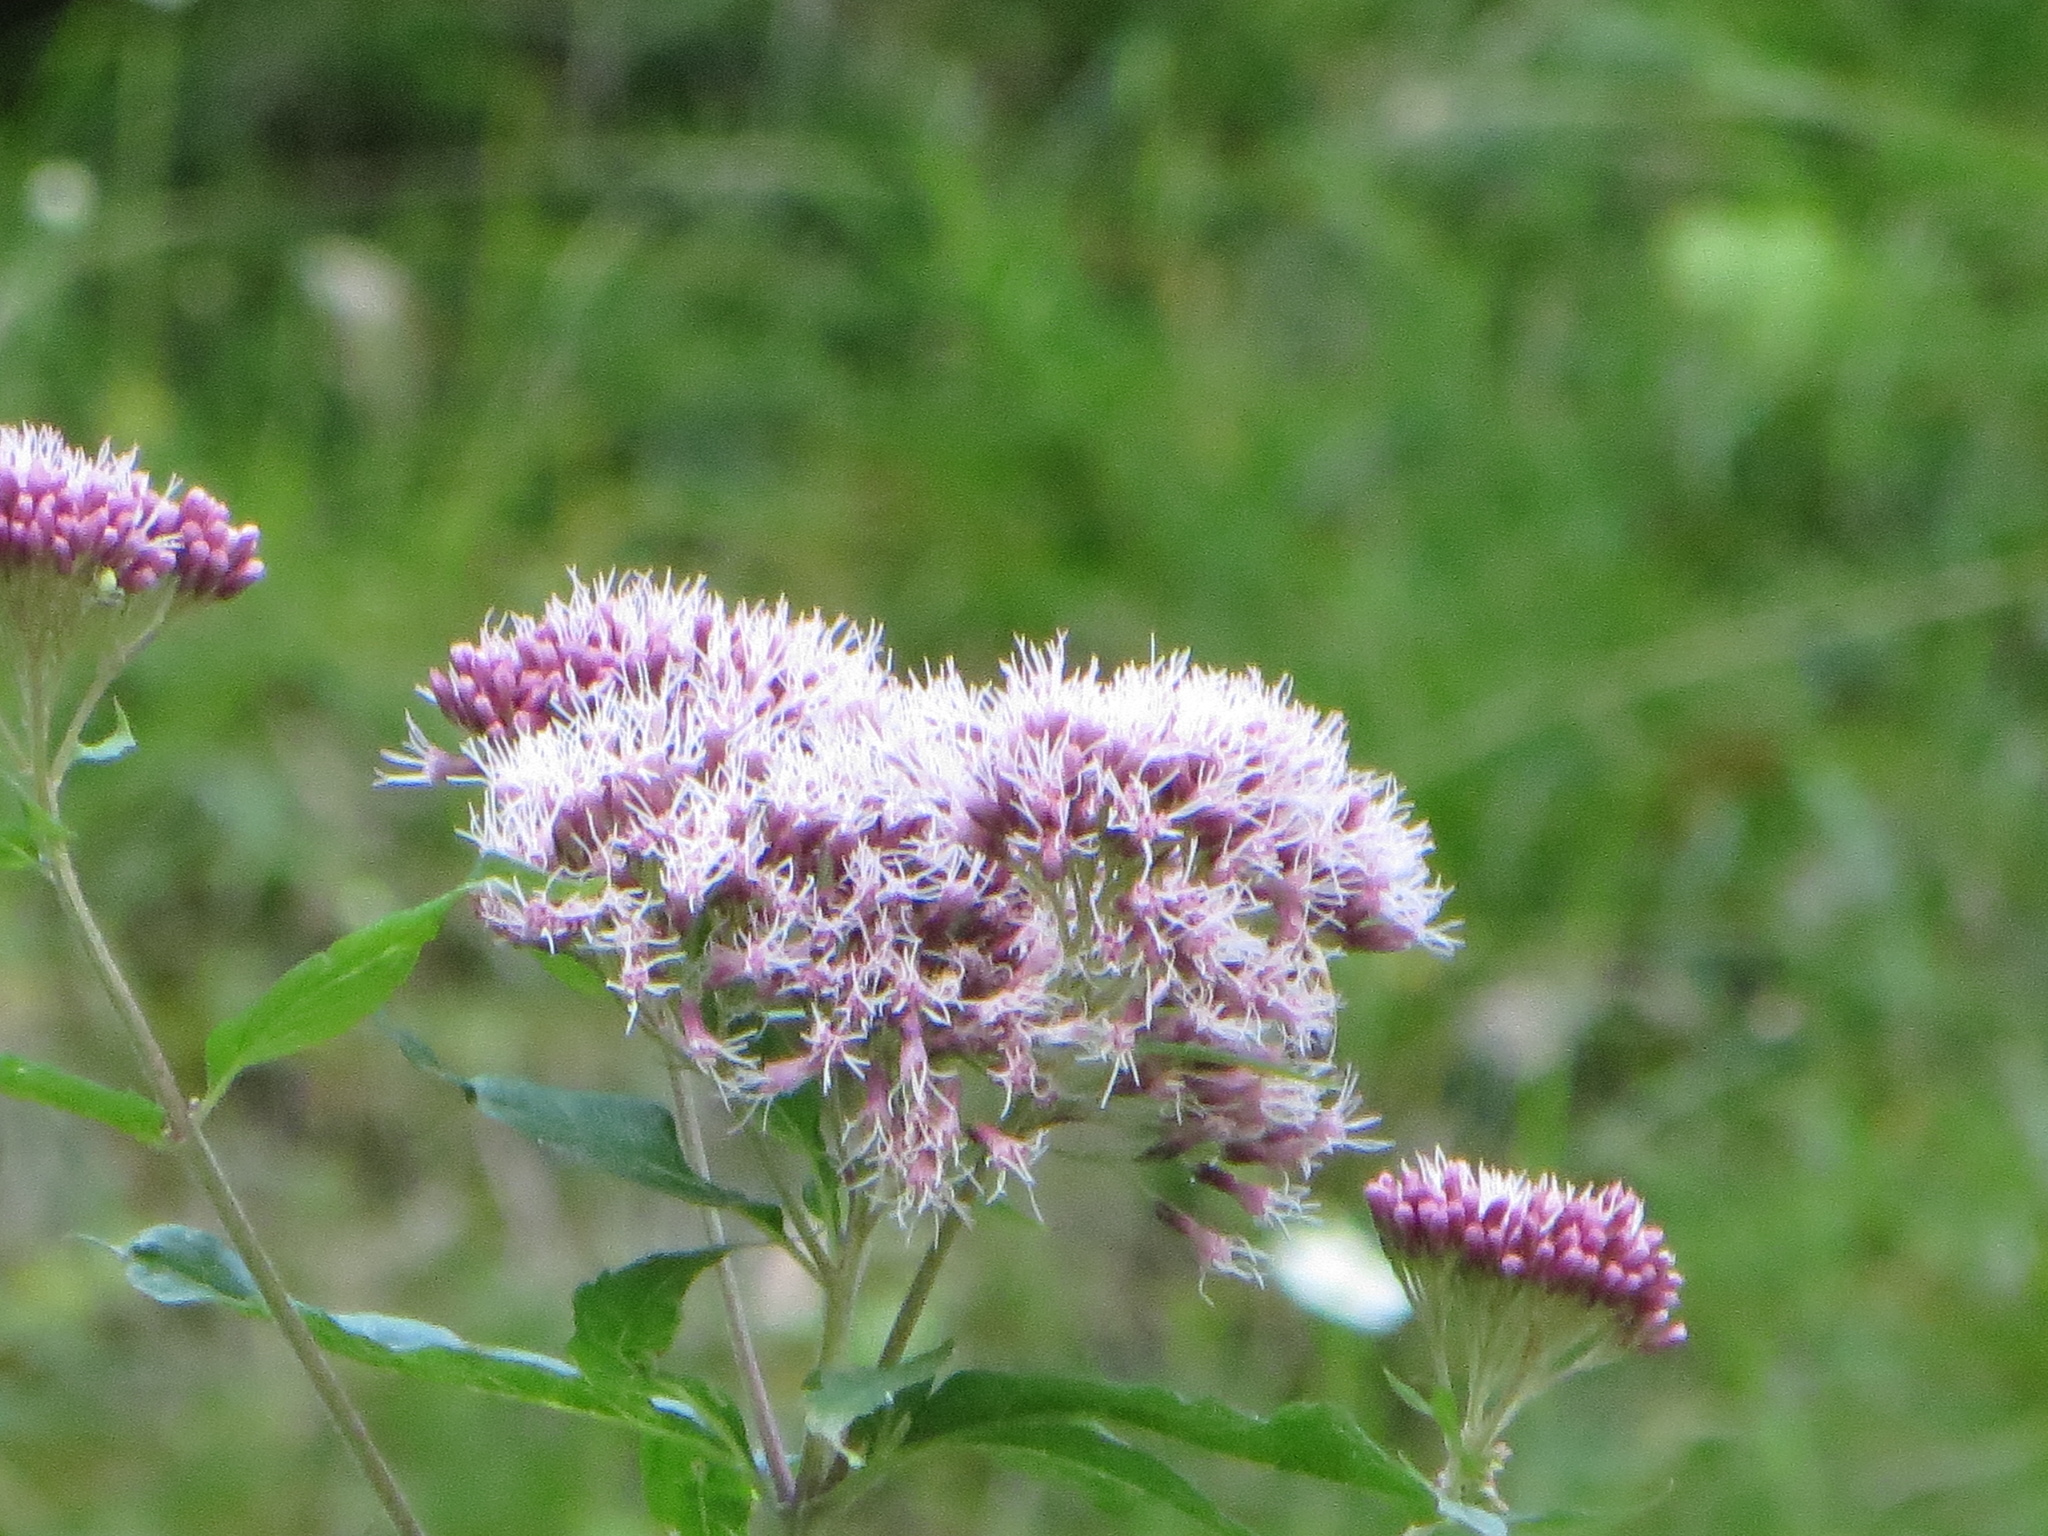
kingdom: Plantae
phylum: Tracheophyta
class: Magnoliopsida
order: Asterales
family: Asteraceae
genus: Eupatorium
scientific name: Eupatorium cannabinum
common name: Hemp-agrimony
